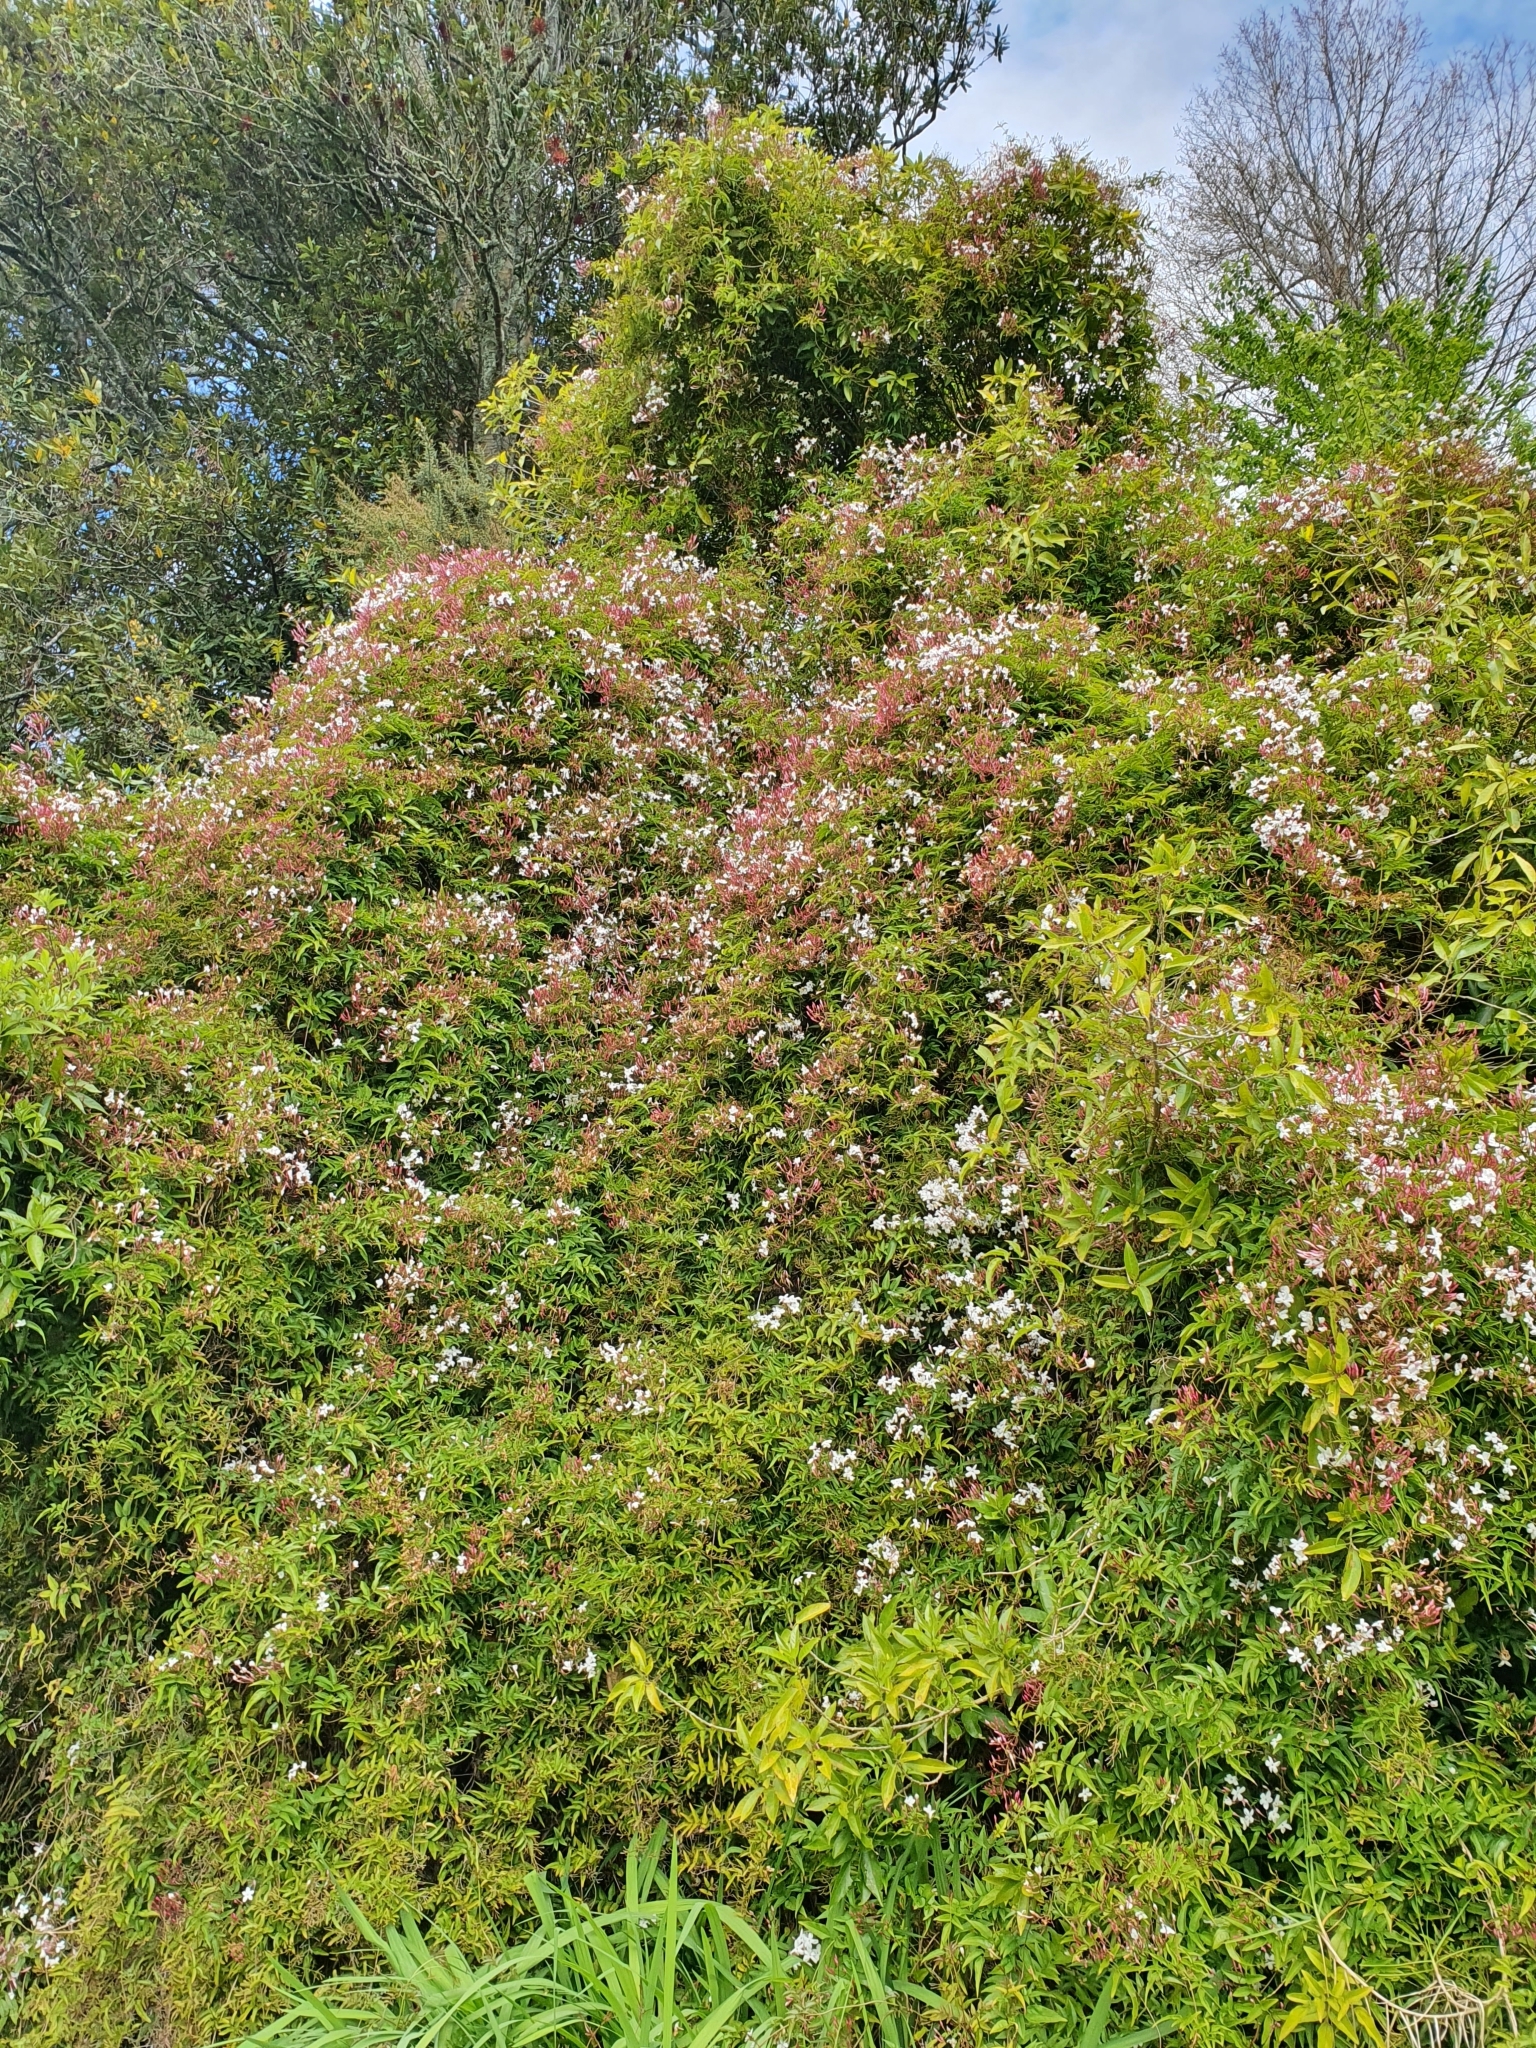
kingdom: Plantae
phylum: Tracheophyta
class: Magnoliopsida
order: Lamiales
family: Oleaceae
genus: Jasminum
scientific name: Jasminum polyanthum
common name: Pink jasmine
